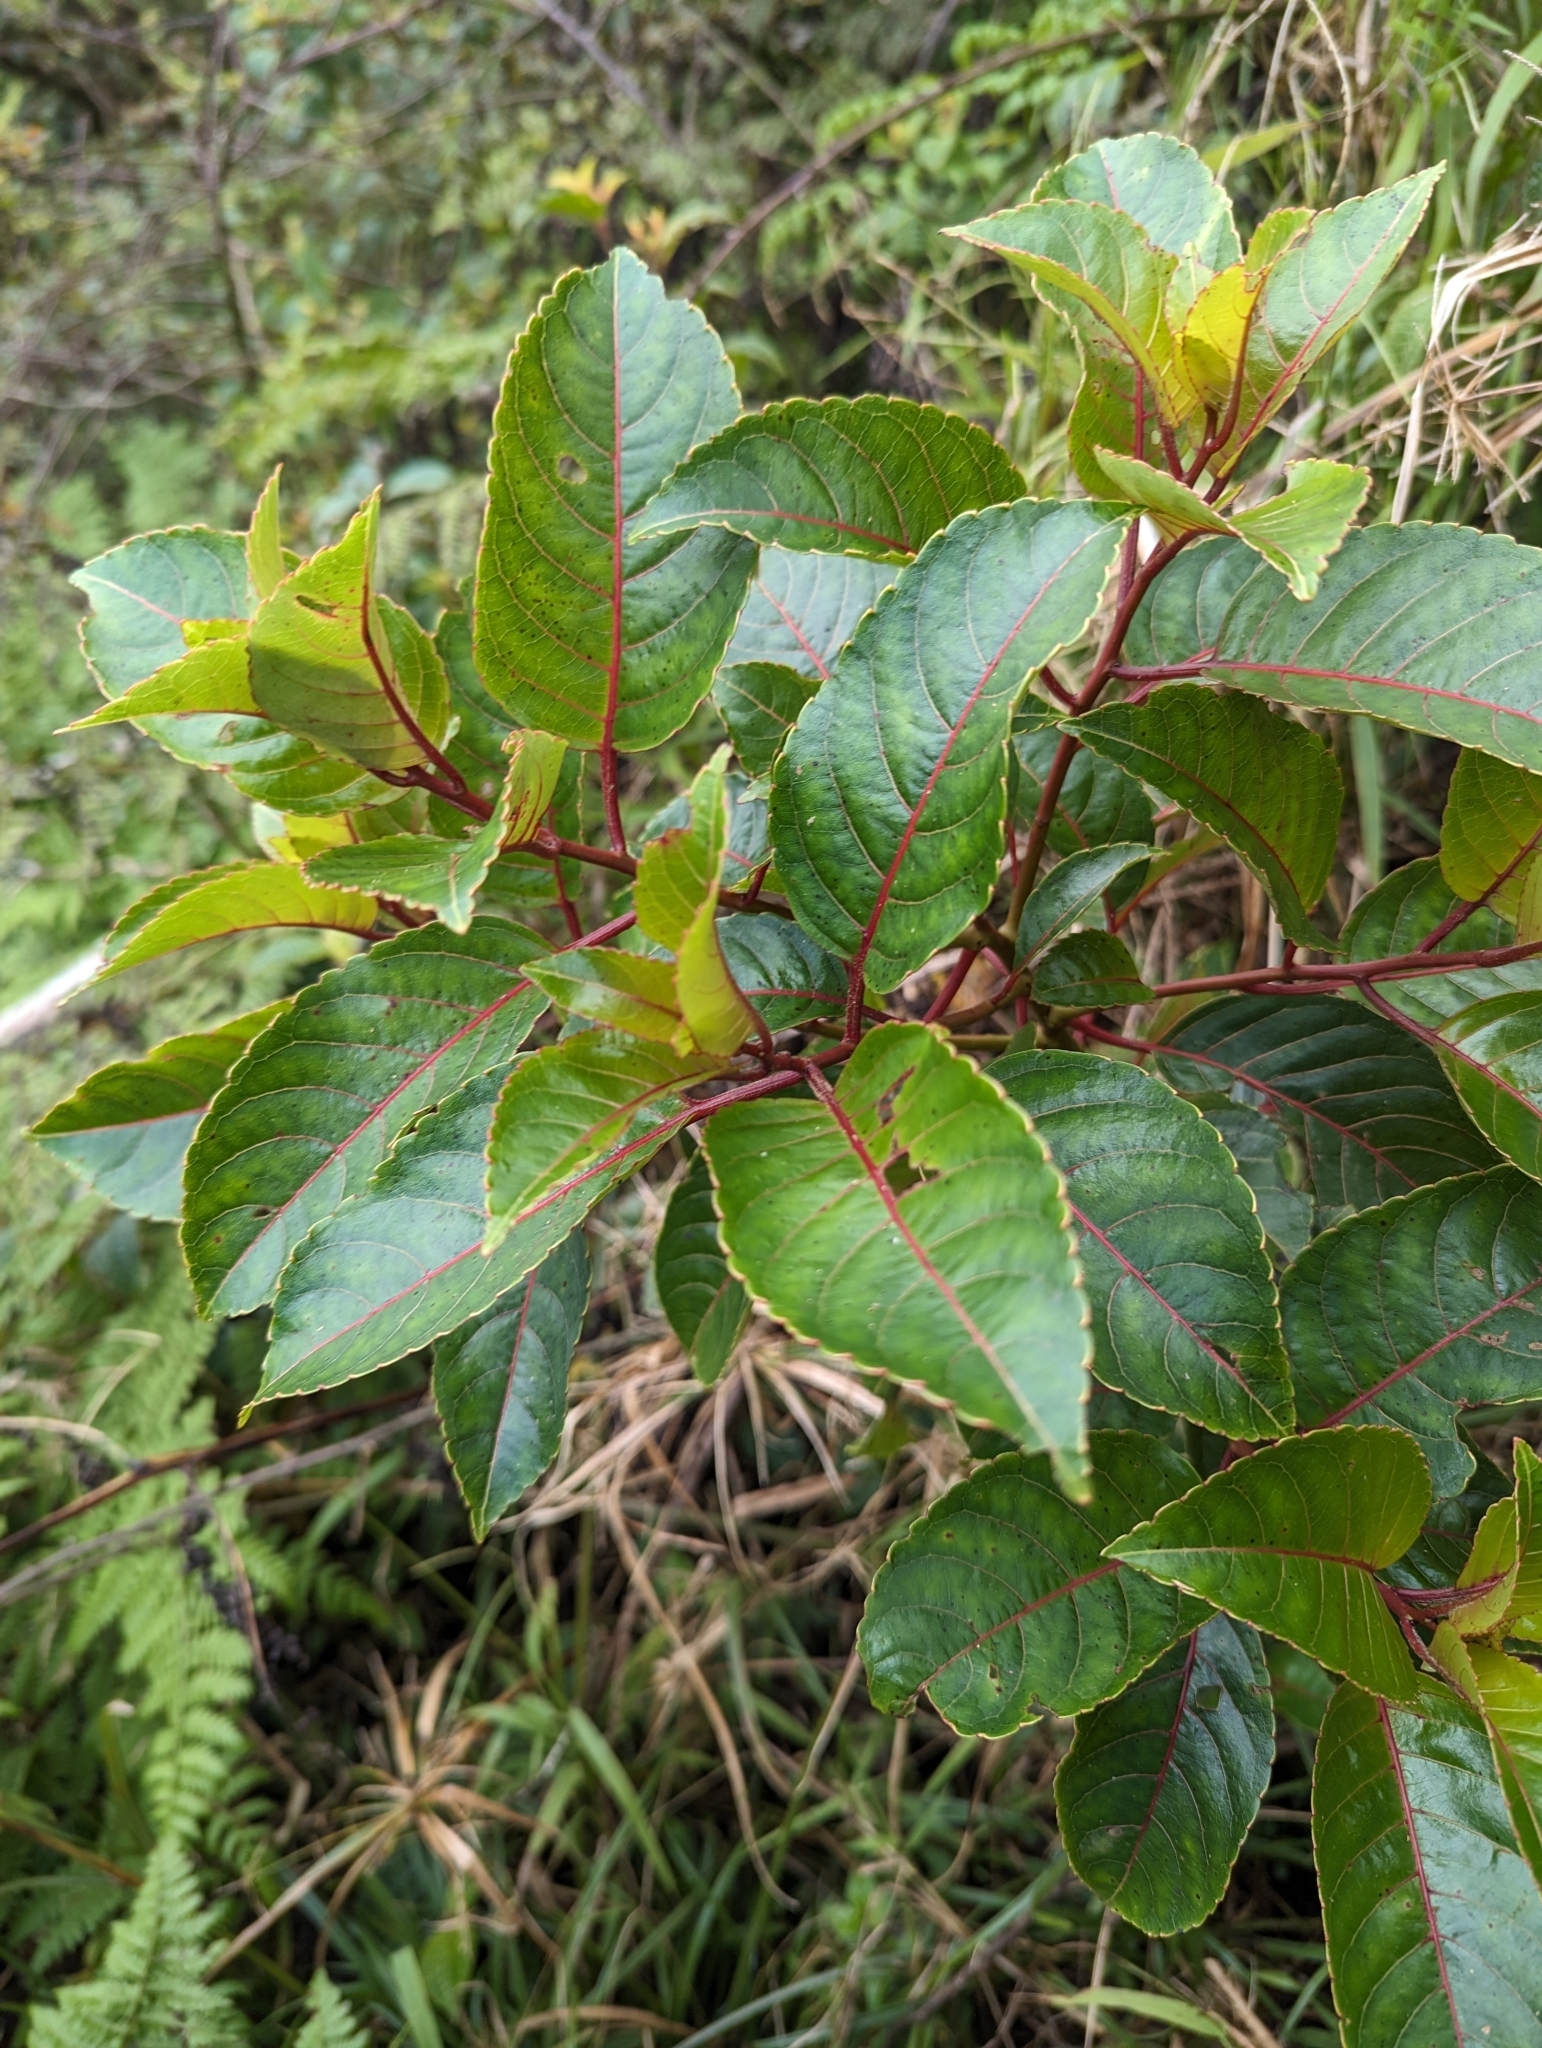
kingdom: Plantae
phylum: Tracheophyta
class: Magnoliopsida
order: Huerteales
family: Dipentodontaceae
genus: Perrottetia
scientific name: Perrottetia sandwicensis
